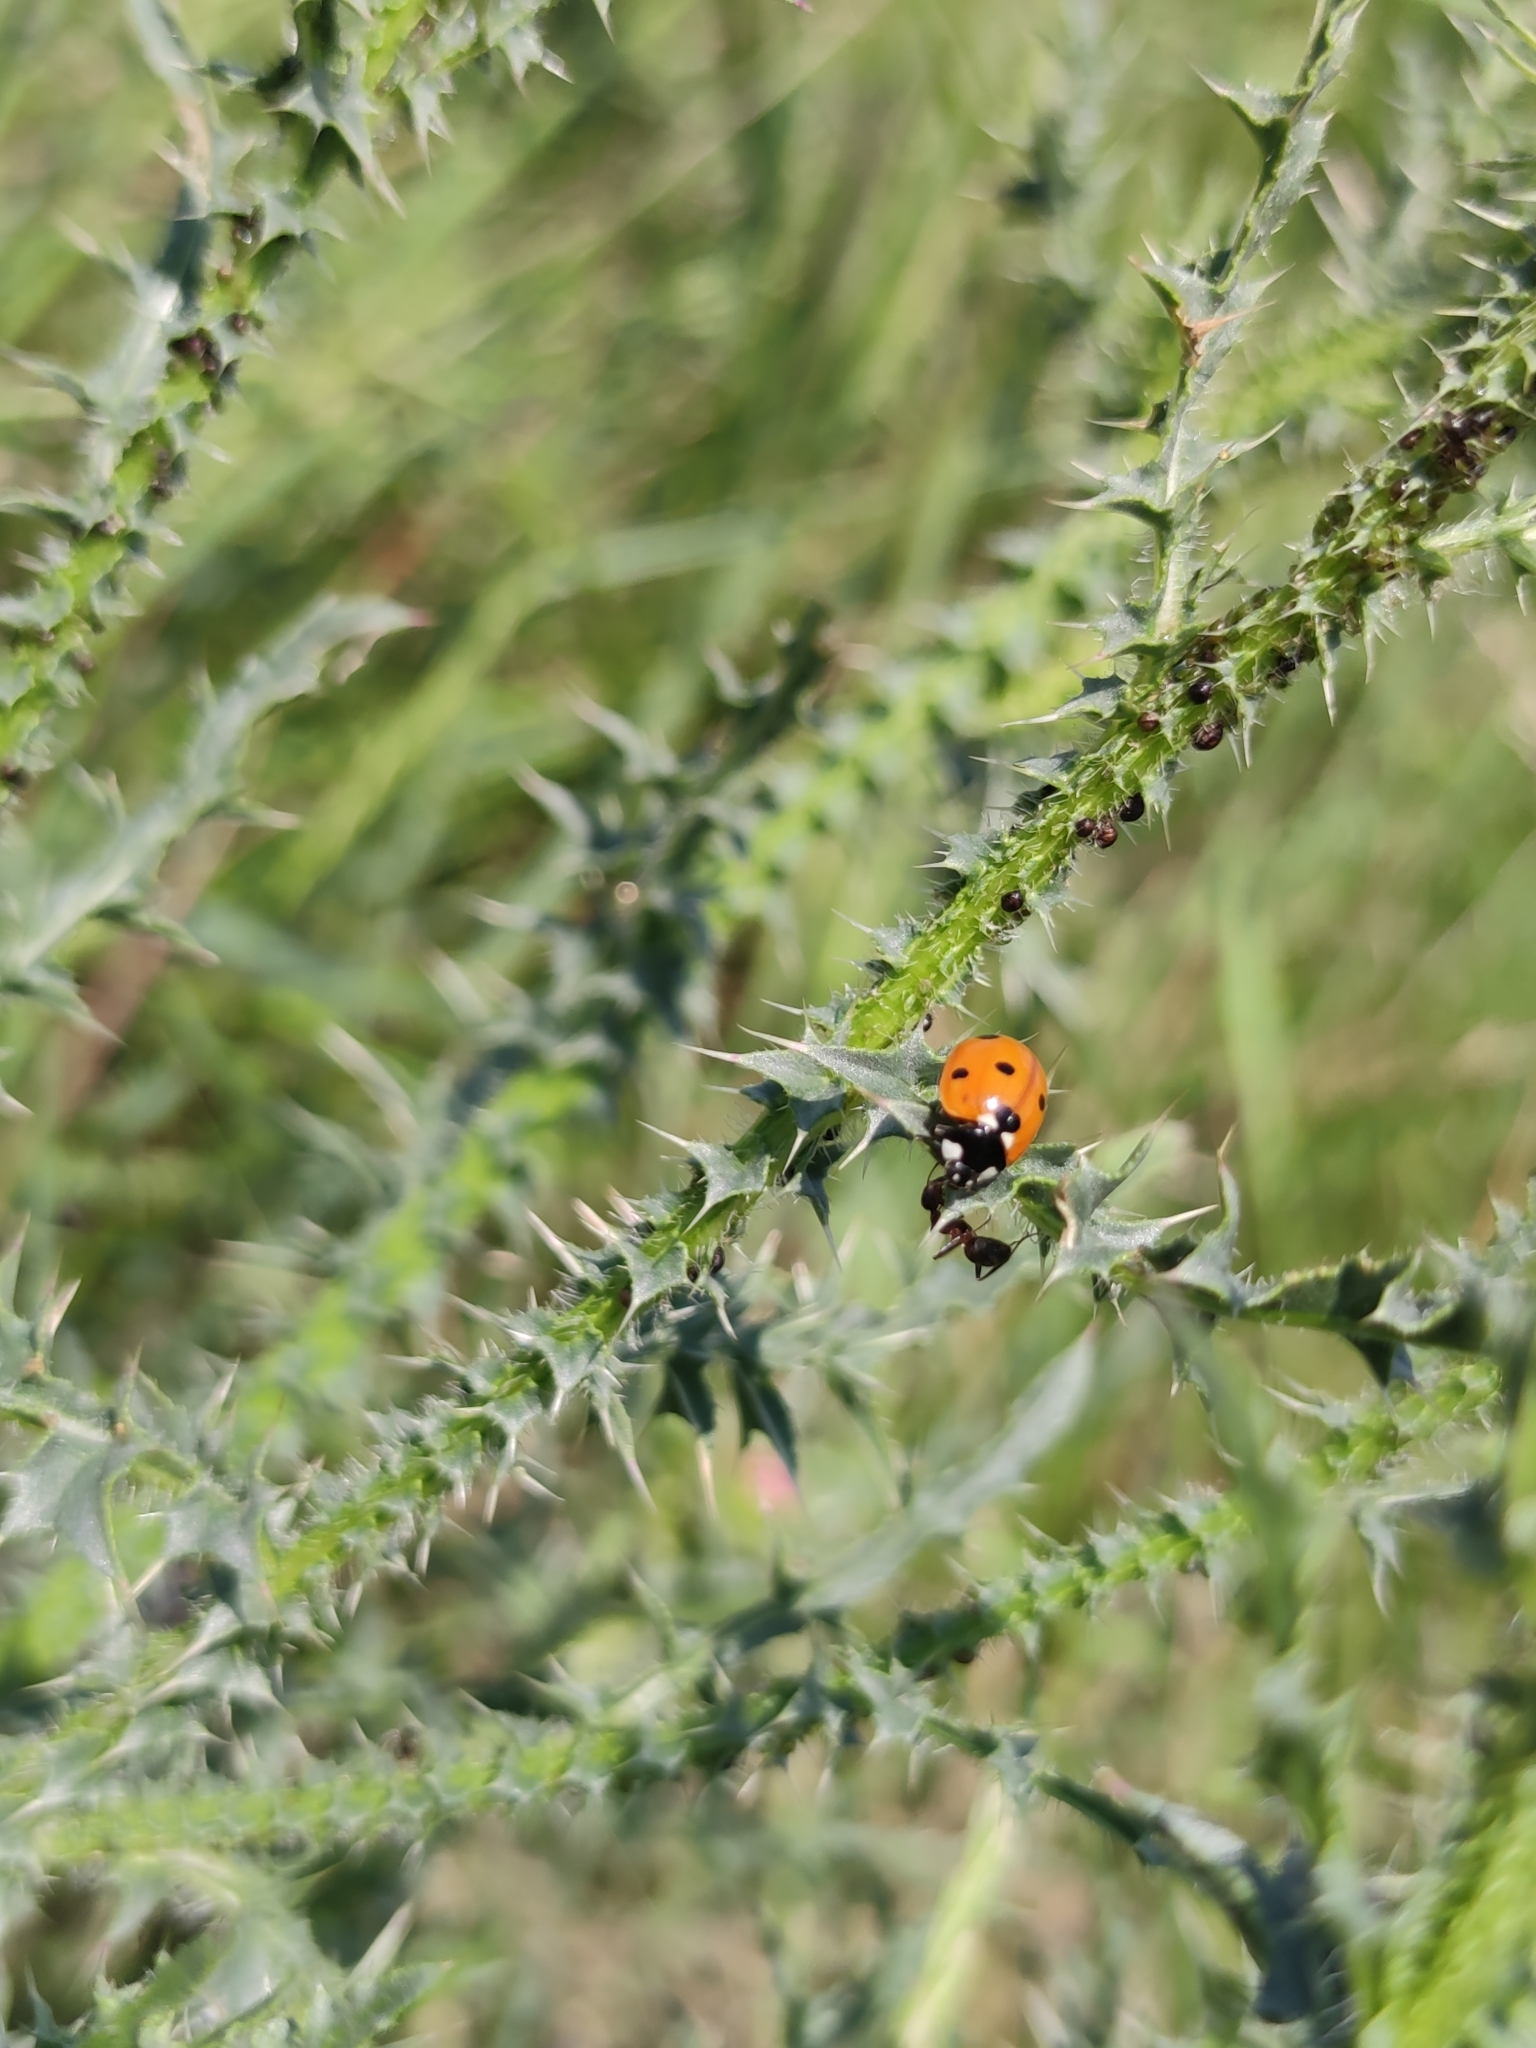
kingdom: Animalia
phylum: Arthropoda
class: Insecta
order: Coleoptera
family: Coccinellidae
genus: Coccinella
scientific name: Coccinella septempunctata
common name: Sevenspotted lady beetle
